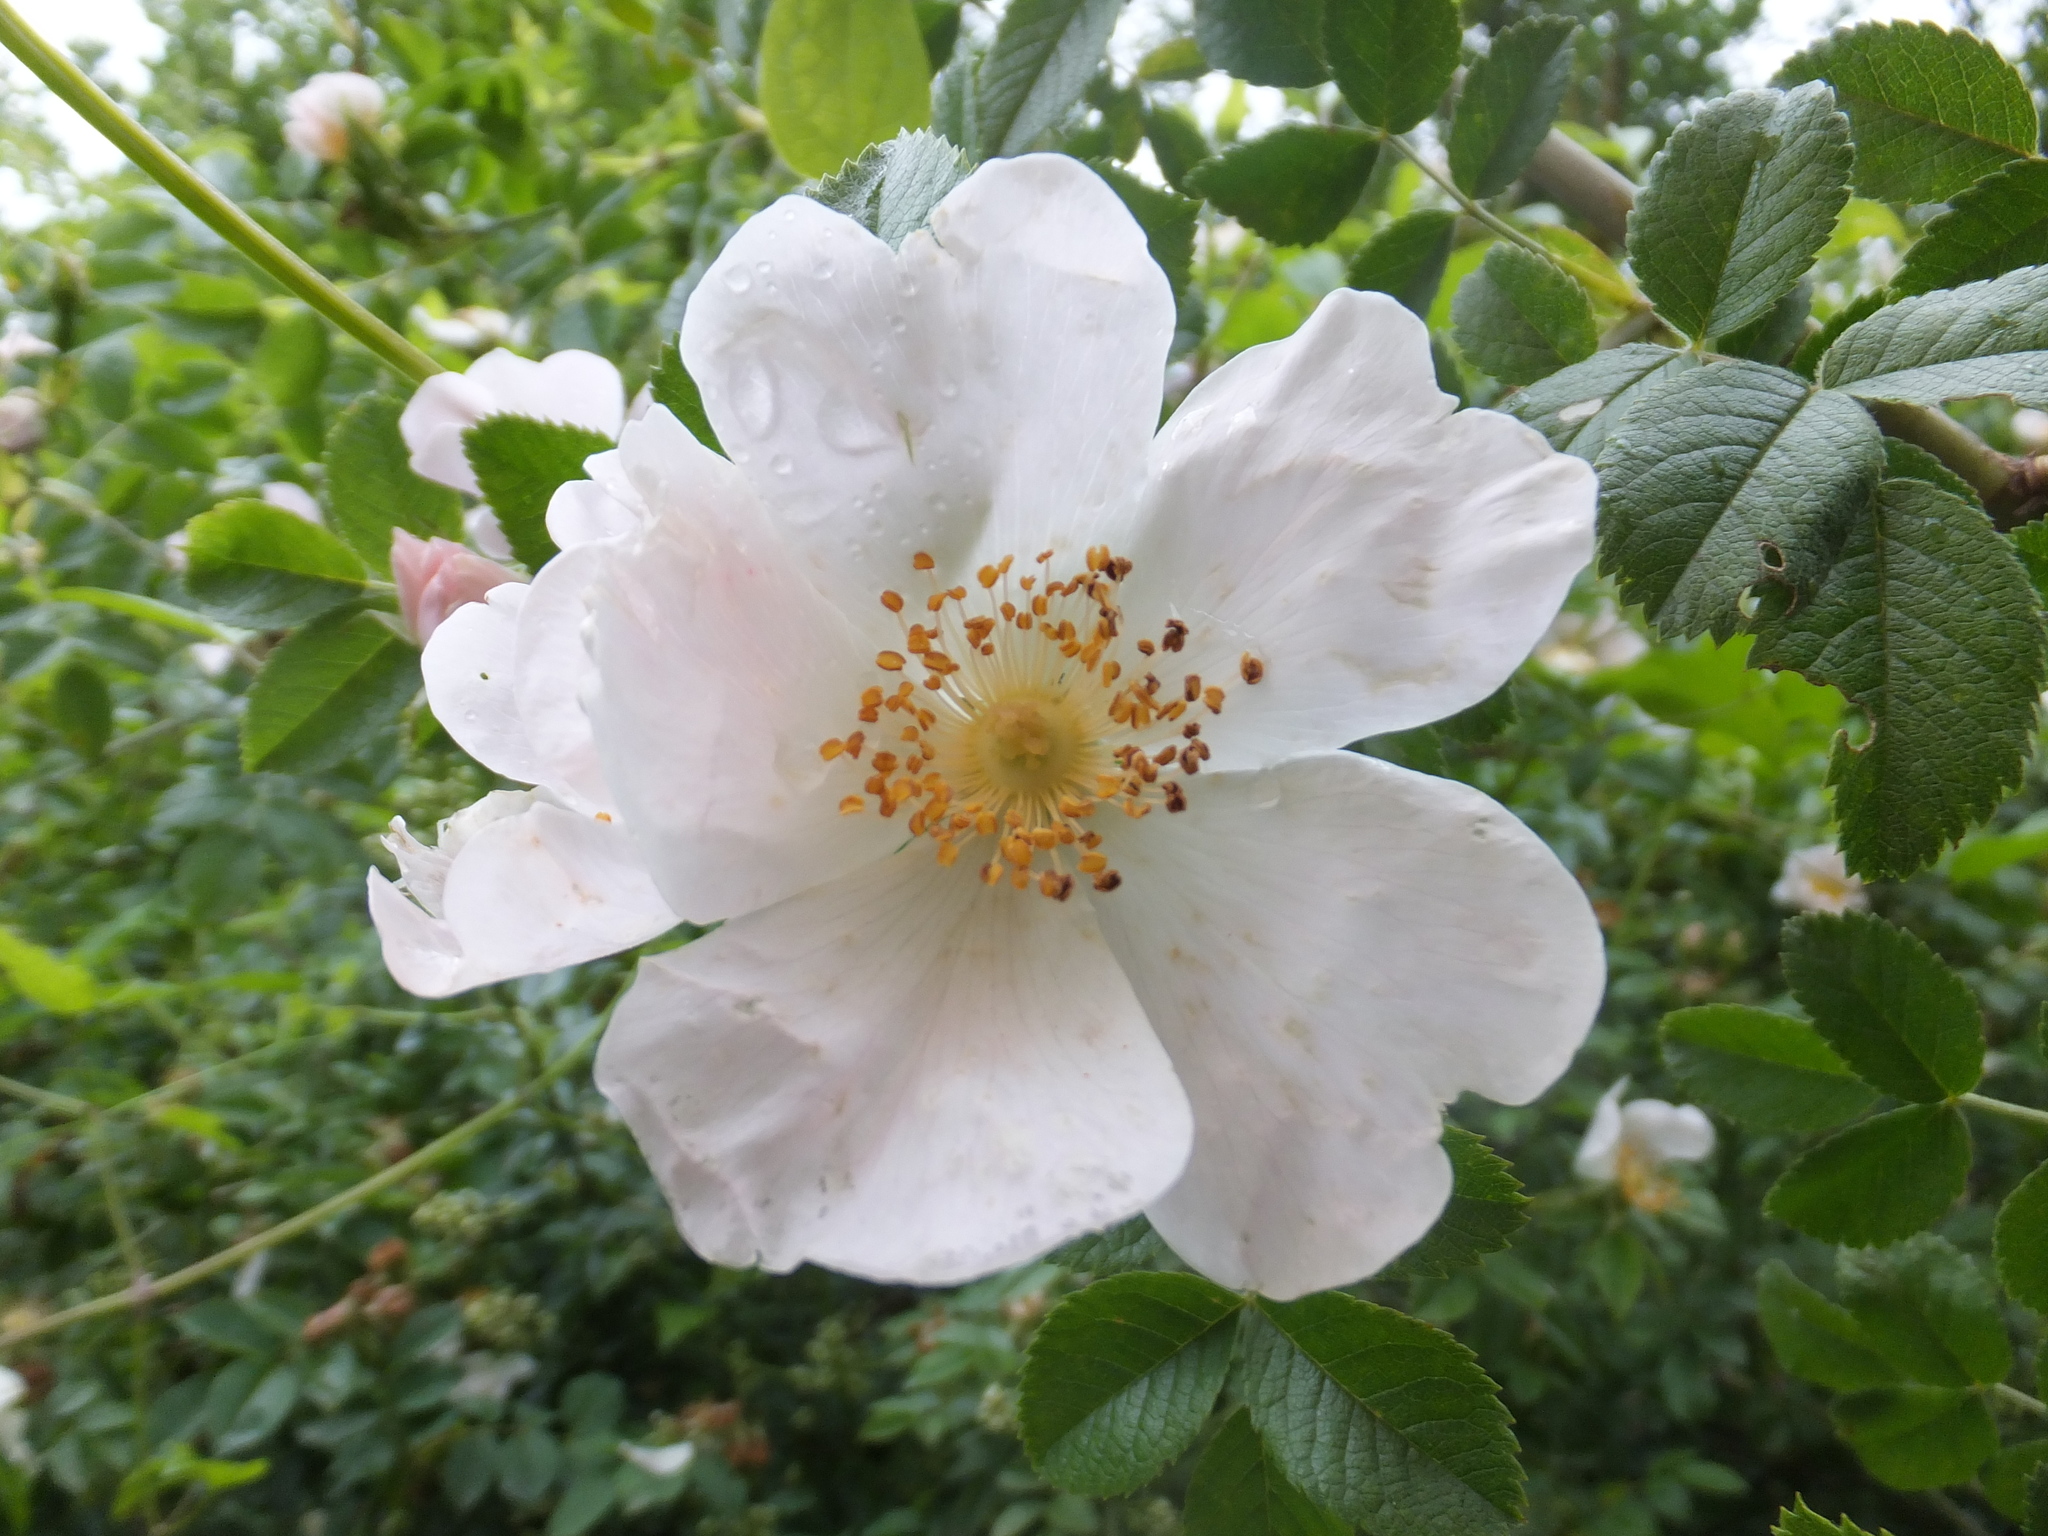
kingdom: Plantae
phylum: Tracheophyta
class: Magnoliopsida
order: Rosales
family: Rosaceae
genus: Rosa
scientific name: Rosa corymbifera
